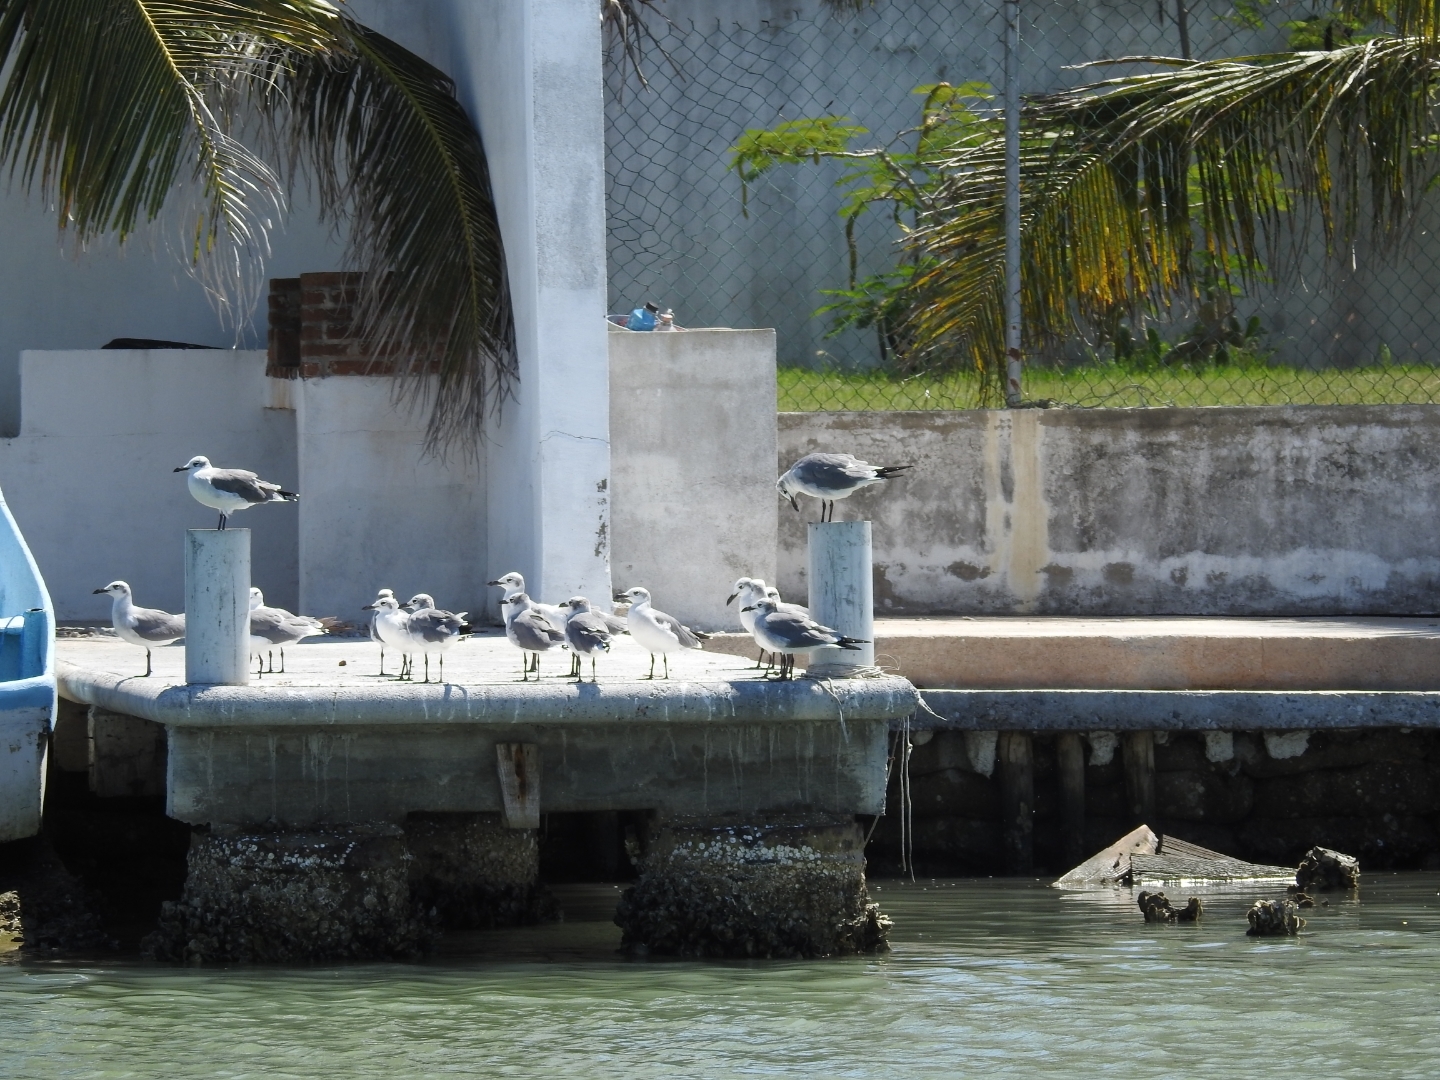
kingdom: Animalia
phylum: Chordata
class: Aves
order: Charadriiformes
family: Laridae
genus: Leucophaeus
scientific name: Leucophaeus atricilla
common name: Laughing gull
